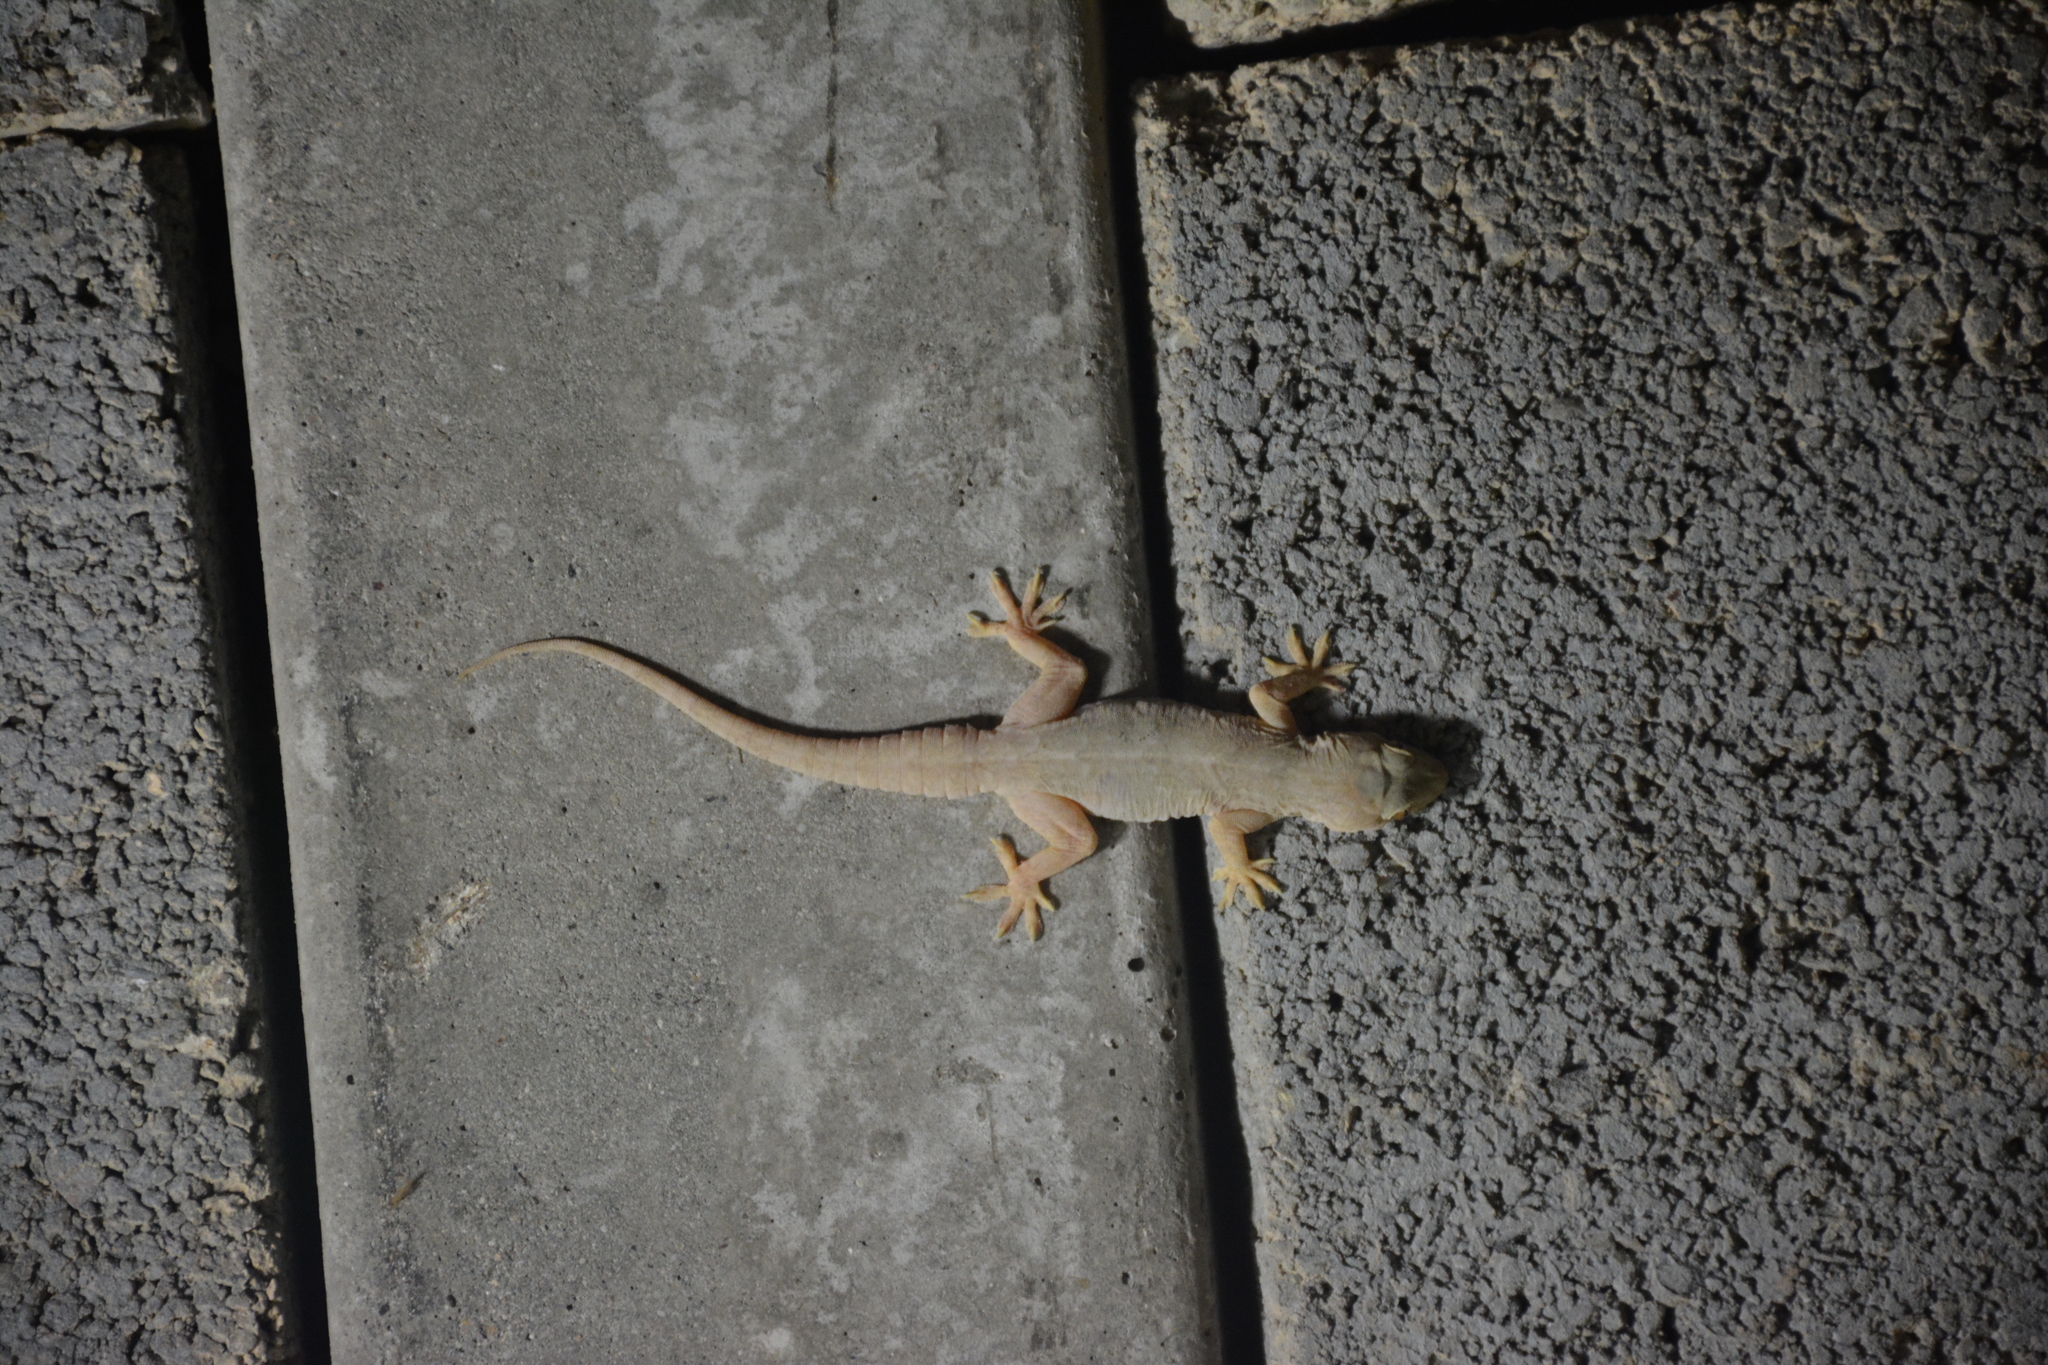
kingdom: Animalia
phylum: Chordata
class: Squamata
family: Gekkonidae
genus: Hemidactylus
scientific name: Hemidactylus flaviviridis
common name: Northern house gecko
